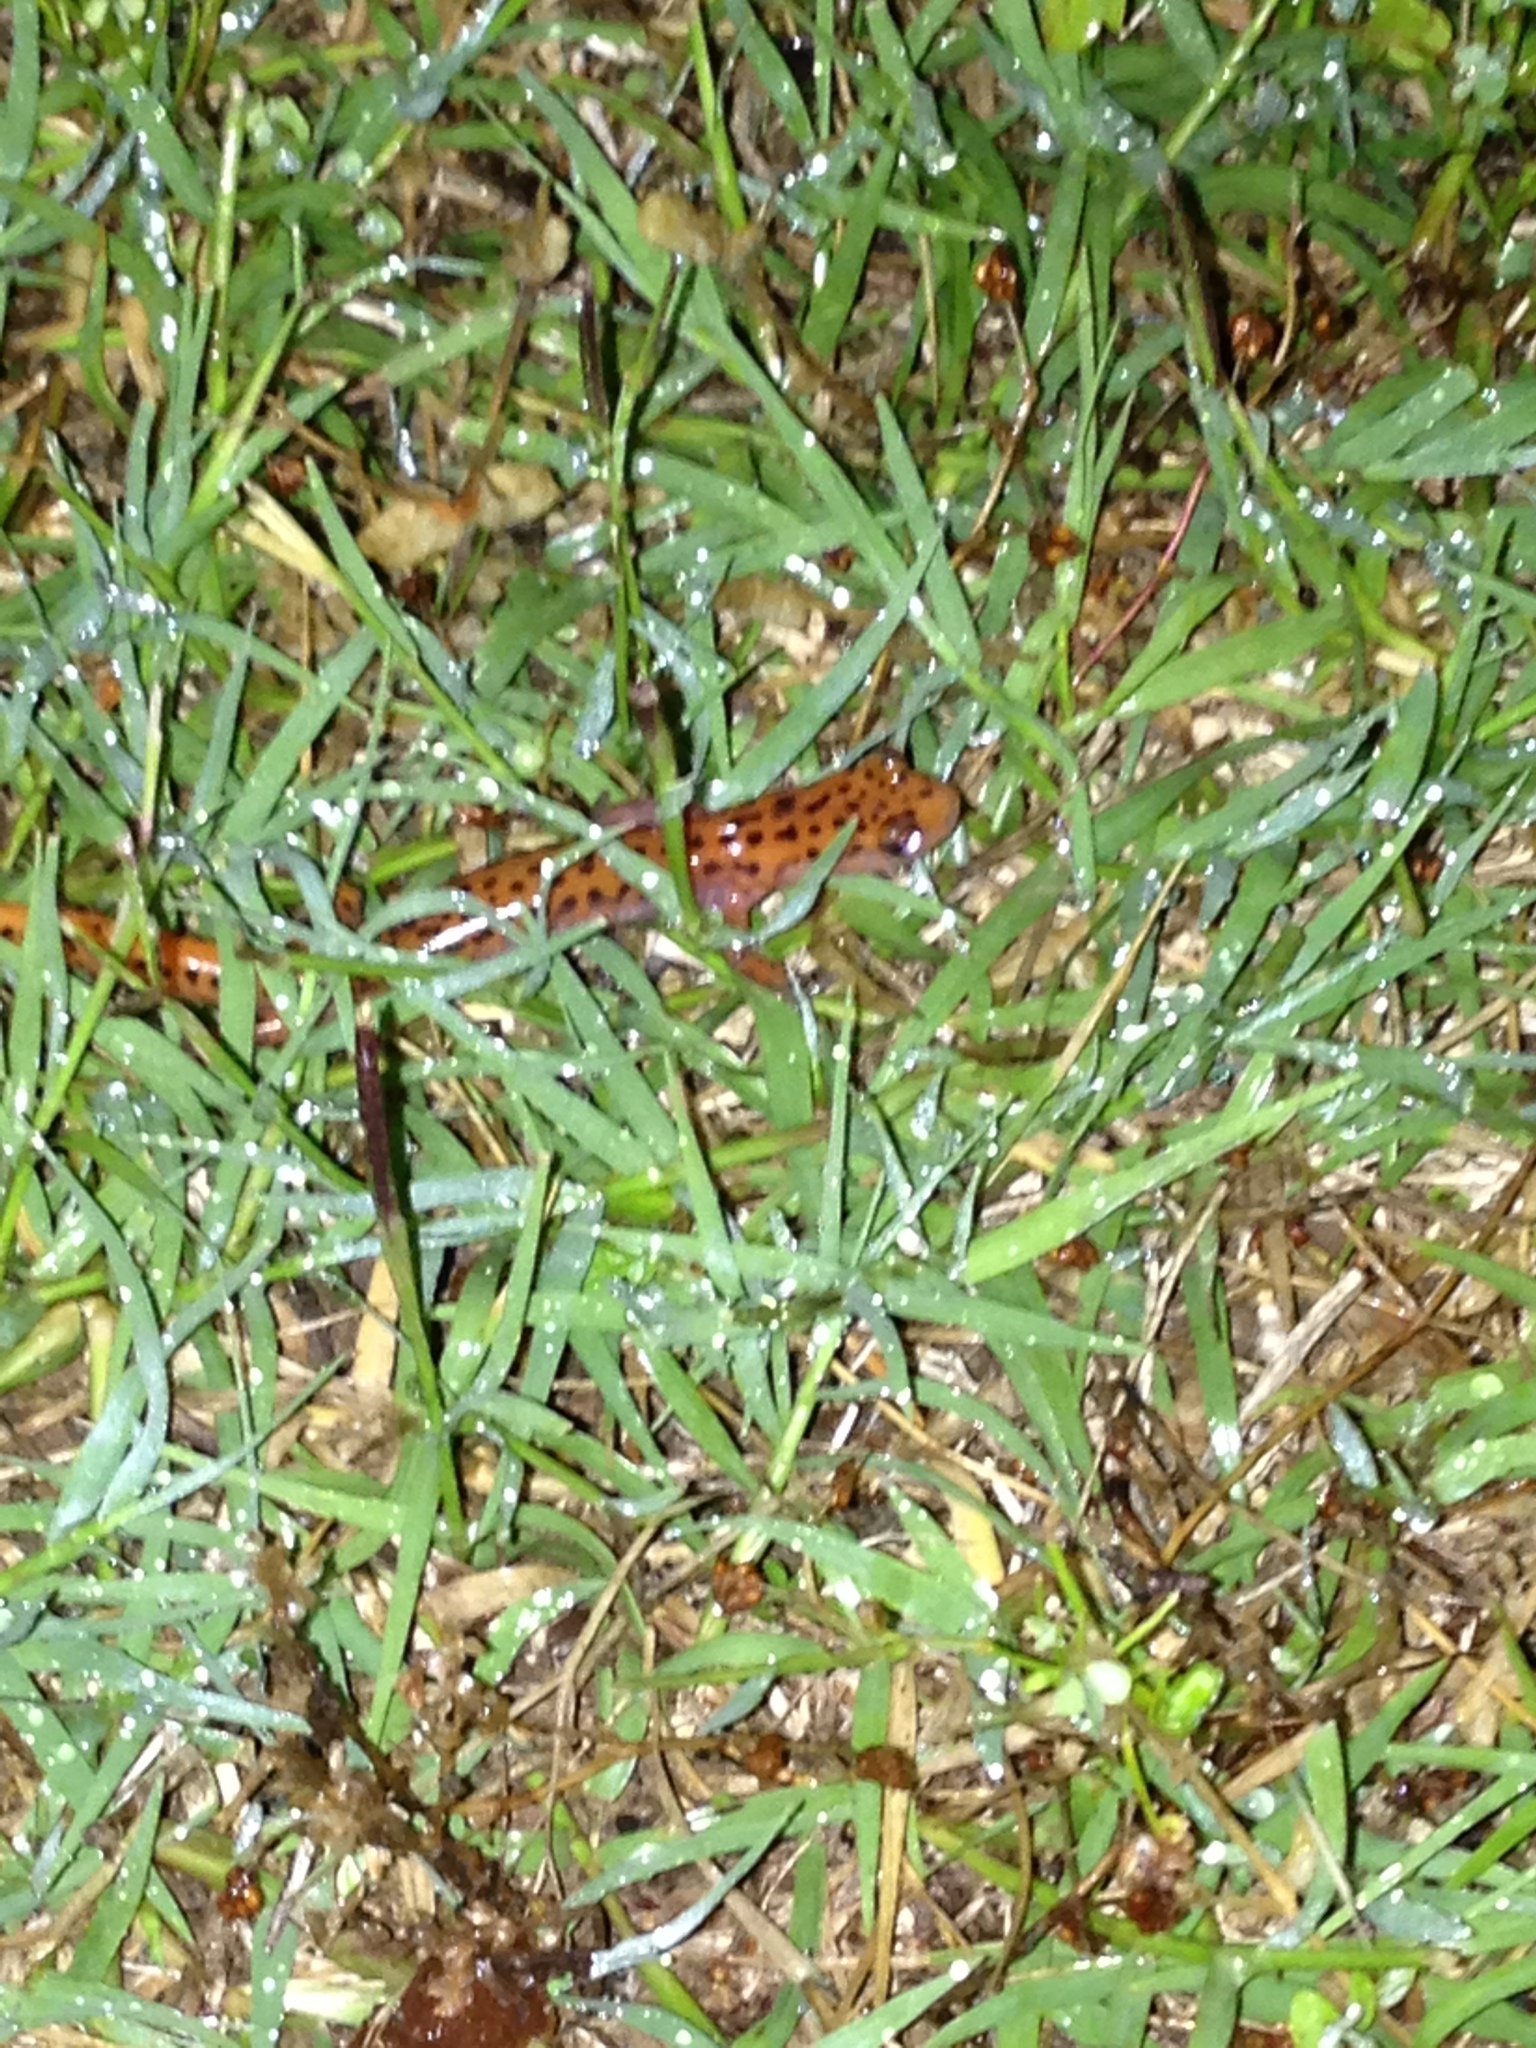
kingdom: Animalia
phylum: Chordata
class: Amphibia
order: Caudata
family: Plethodontidae
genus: Eurycea
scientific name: Eurycea lucifuga
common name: Cave salamander
